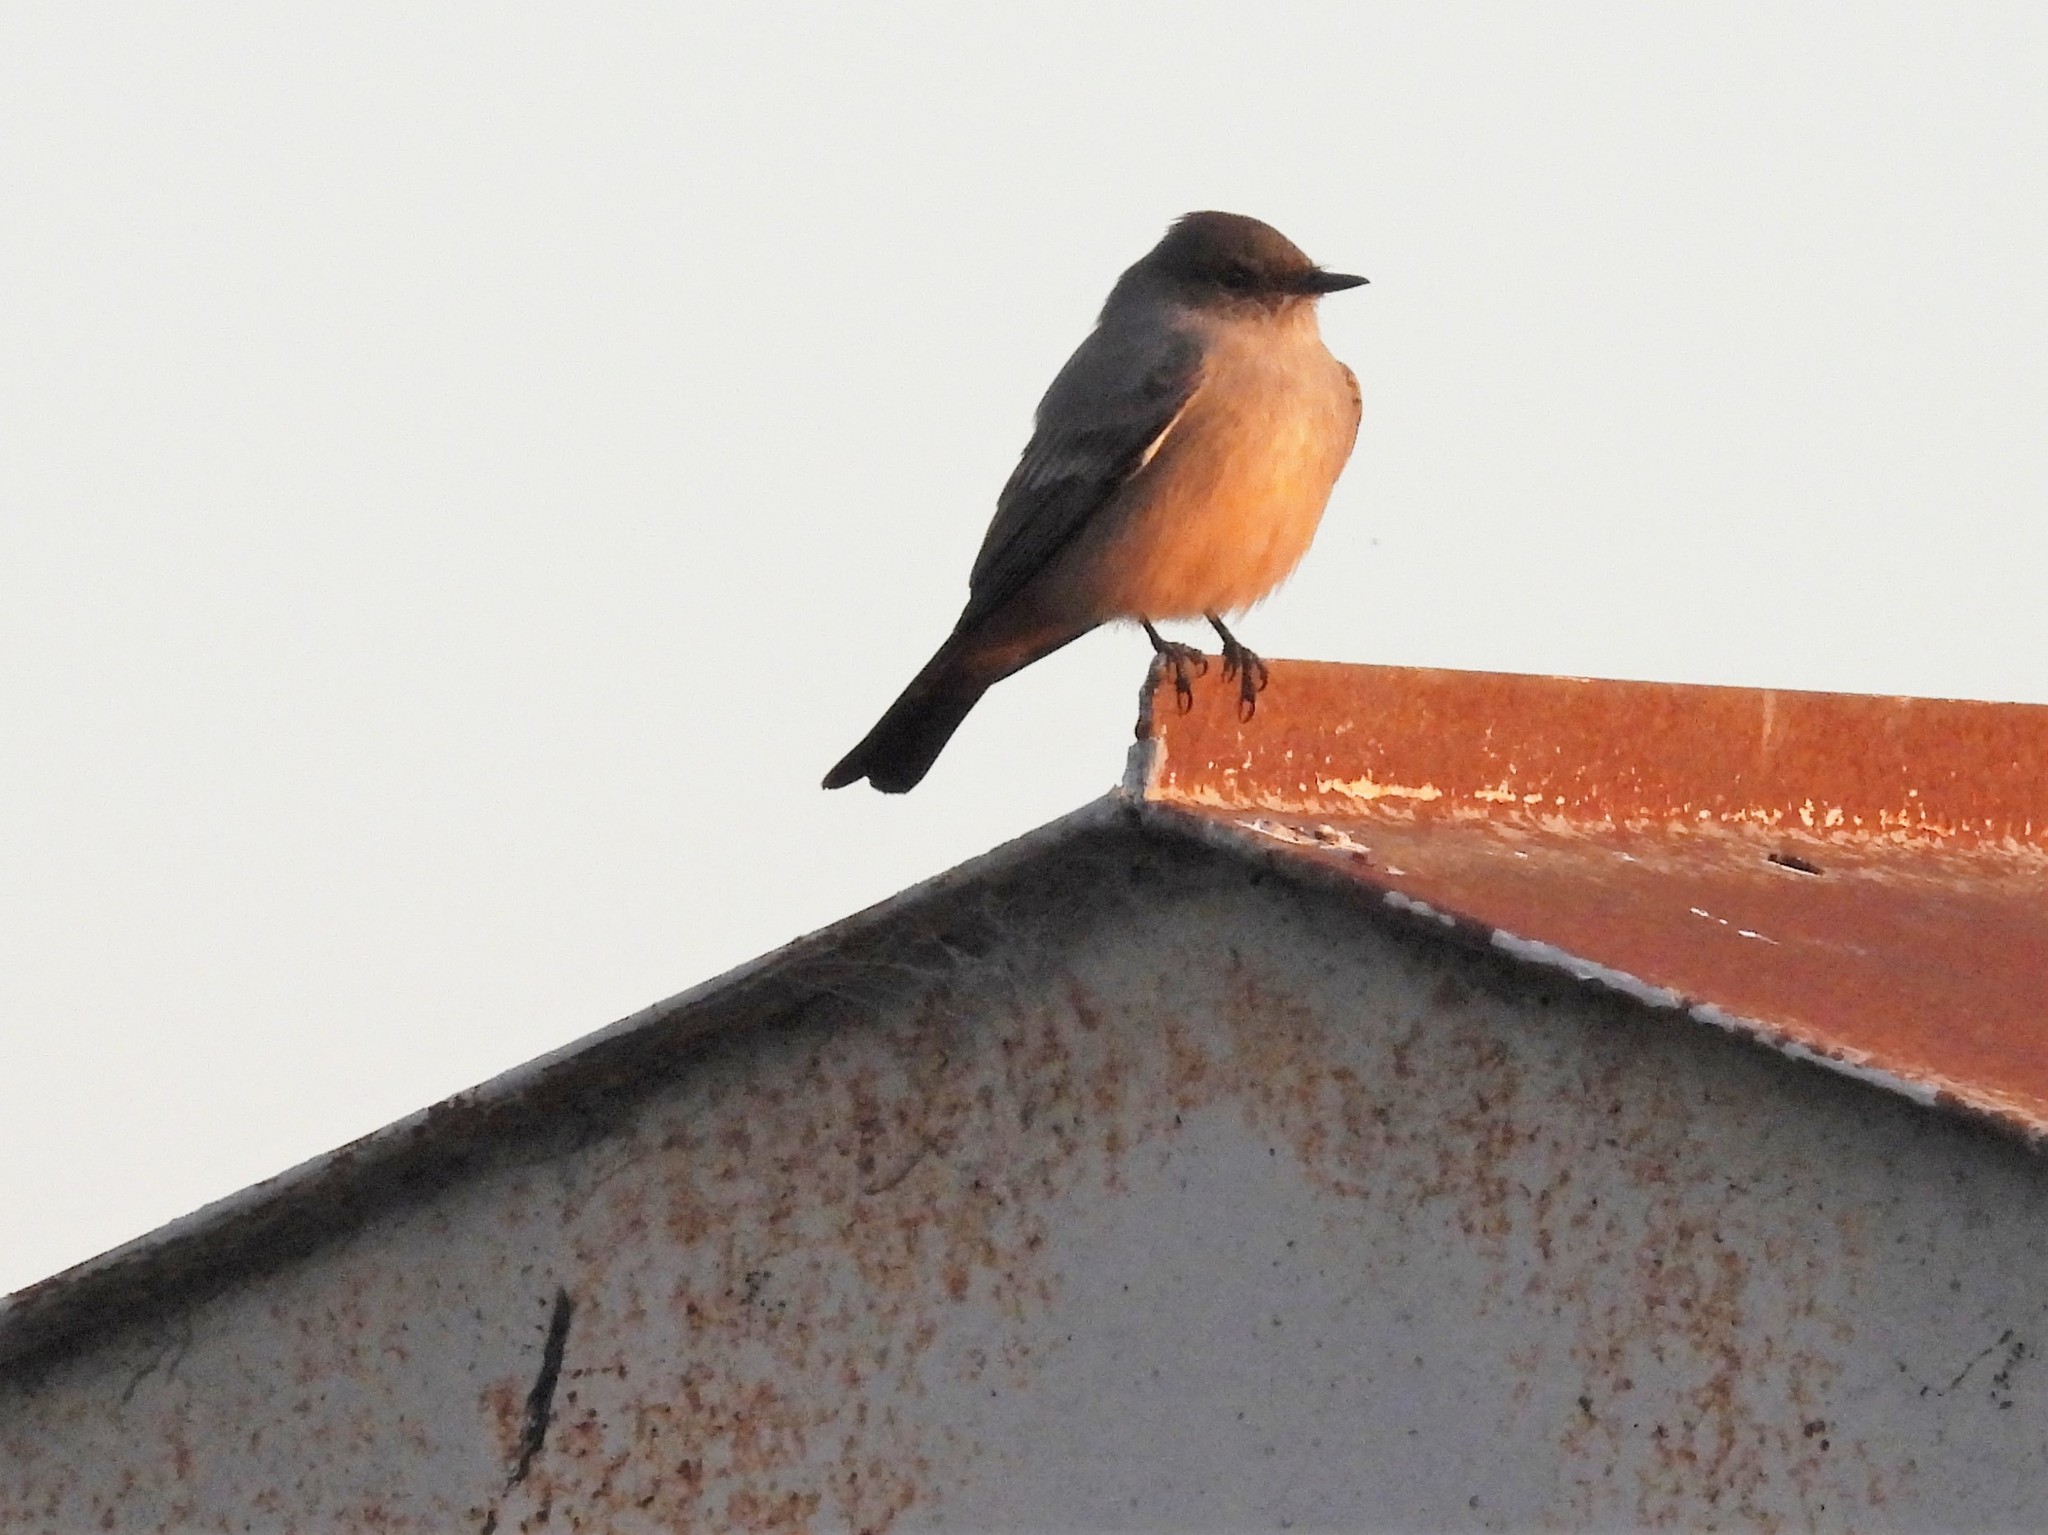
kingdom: Animalia
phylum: Chordata
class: Aves
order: Passeriformes
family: Tyrannidae
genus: Sayornis
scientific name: Sayornis saya
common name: Say's phoebe
